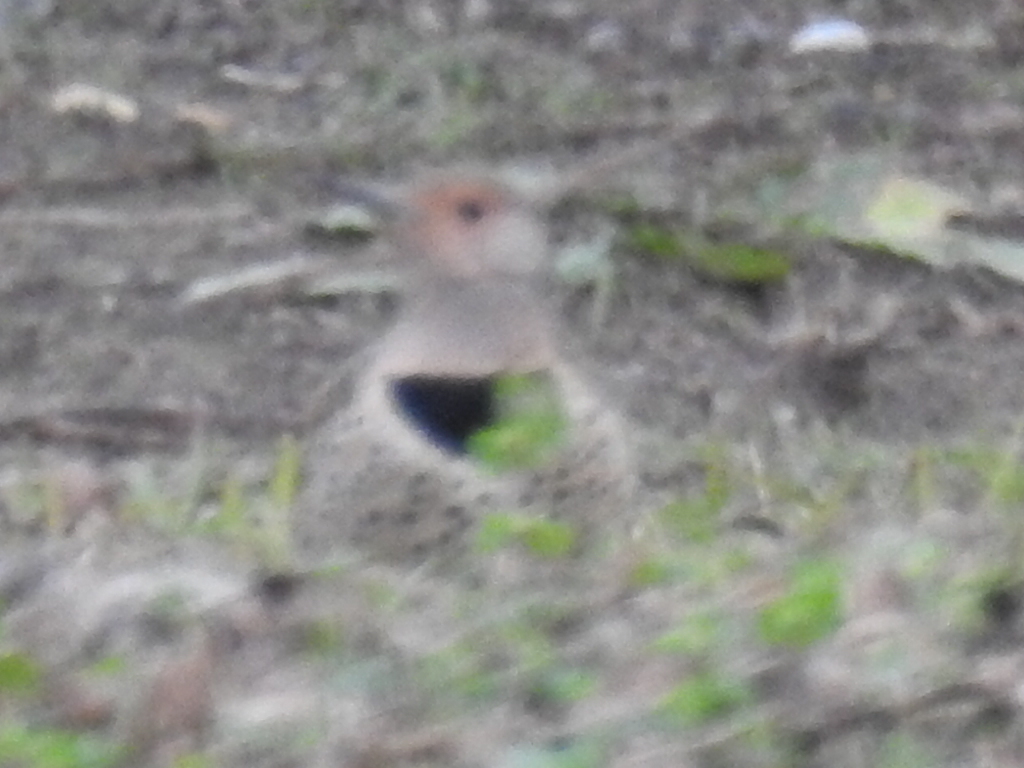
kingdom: Animalia
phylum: Chordata
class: Aves
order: Piciformes
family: Picidae
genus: Colaptes
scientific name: Colaptes auratus
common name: Northern flicker
